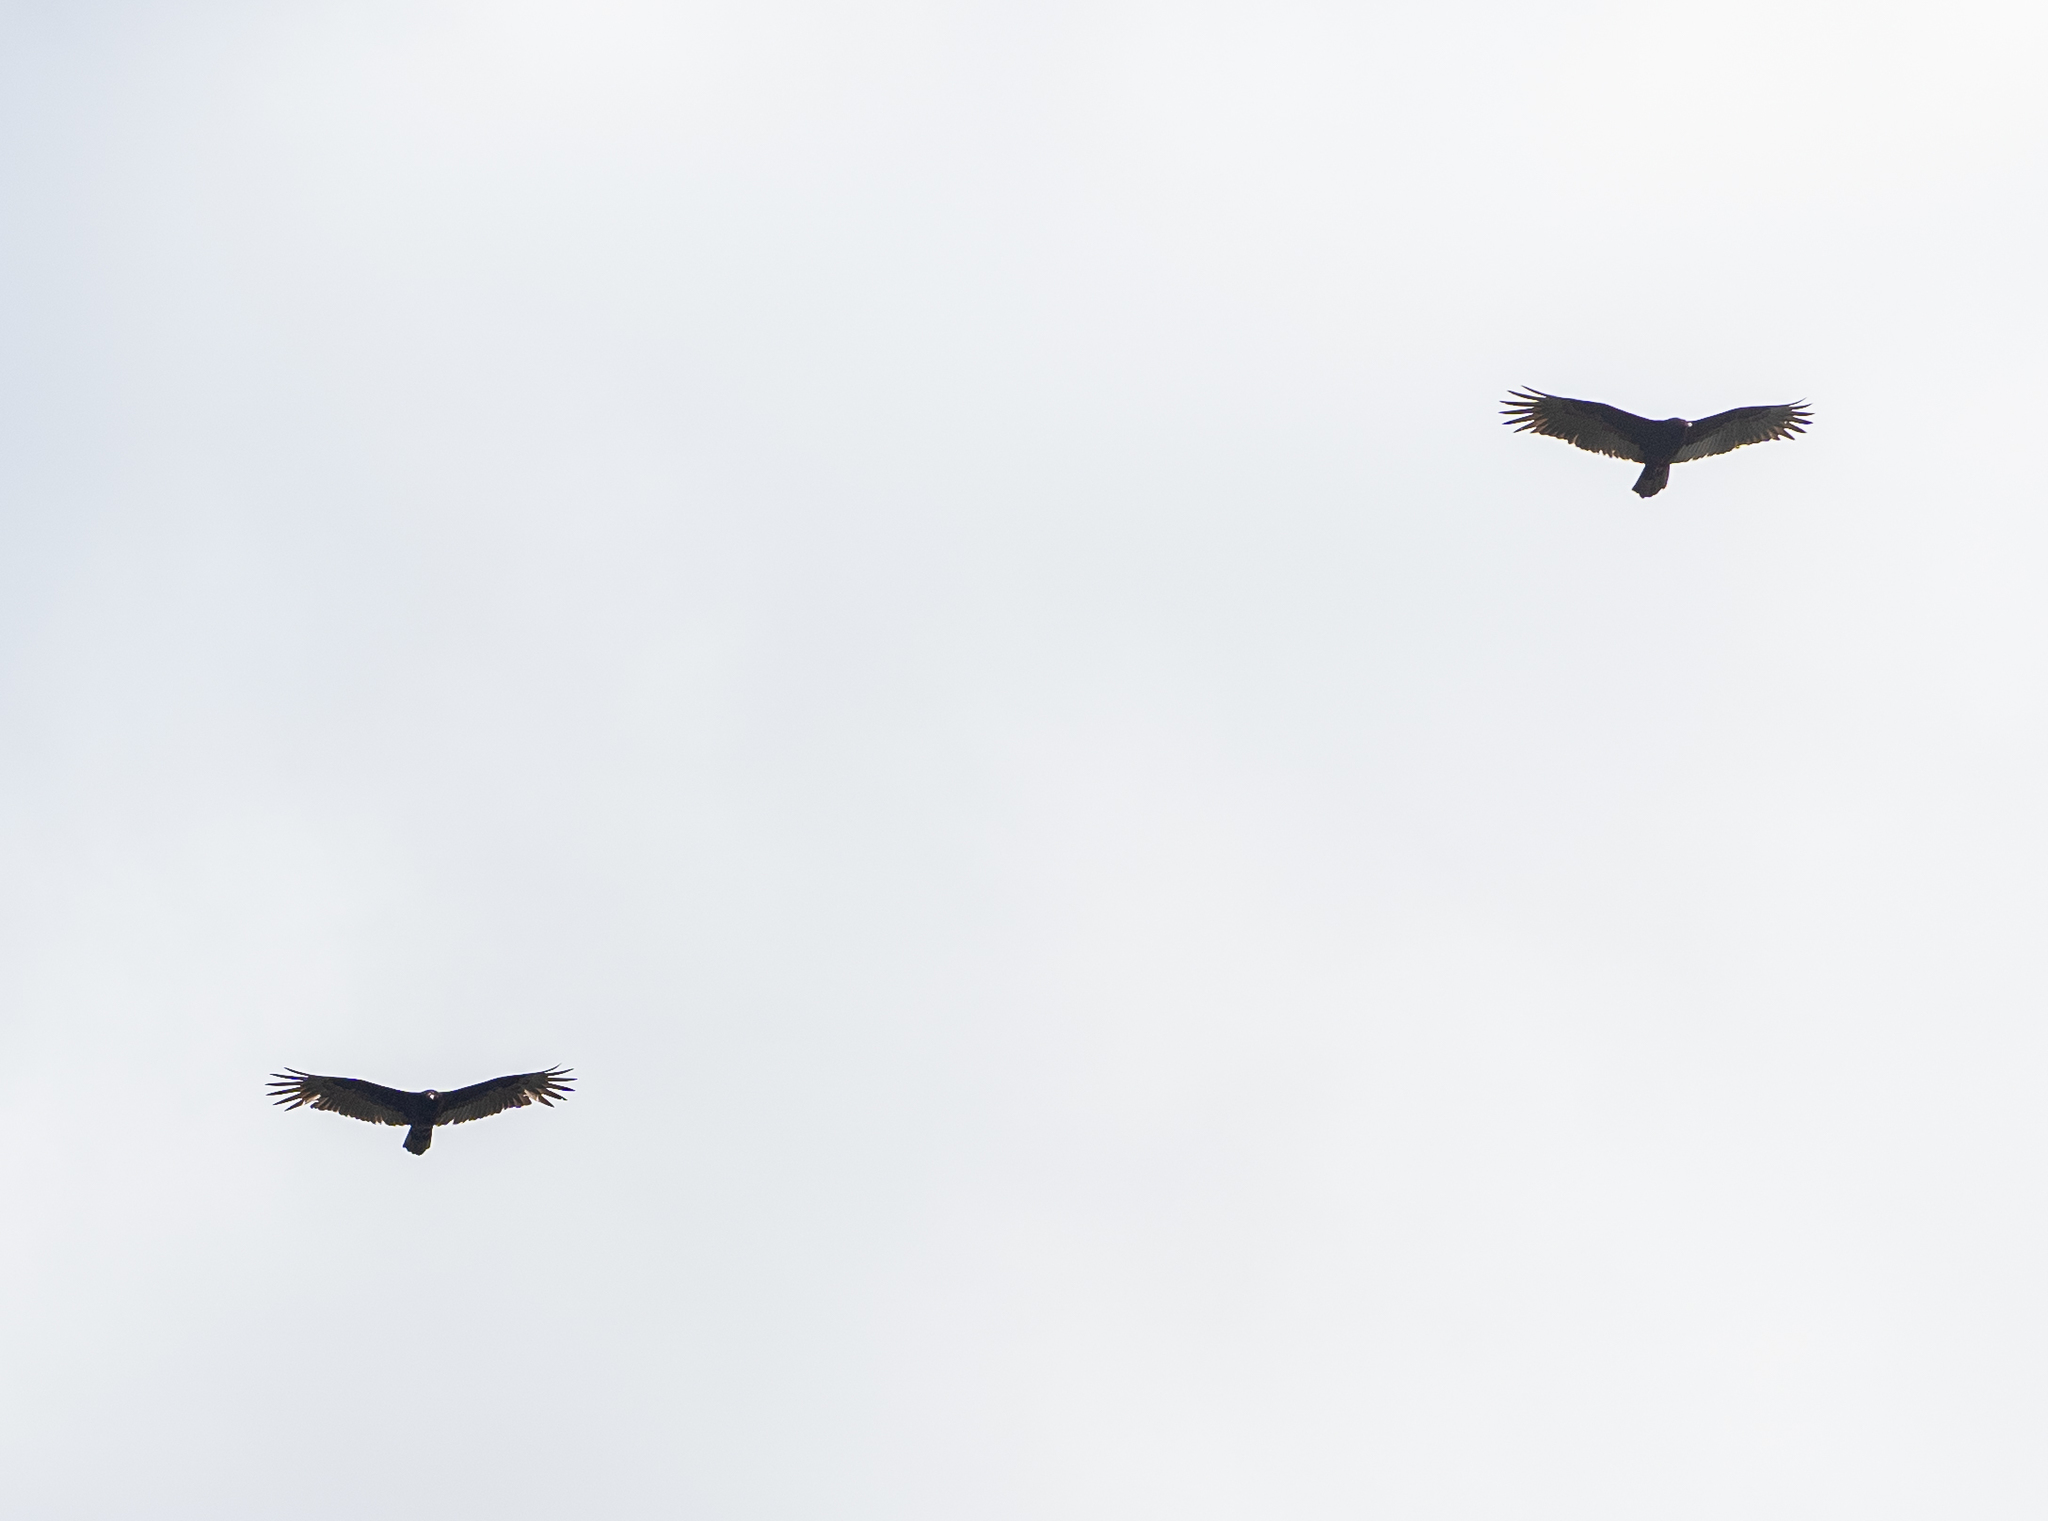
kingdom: Animalia
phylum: Chordata
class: Aves
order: Accipitriformes
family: Cathartidae
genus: Cathartes
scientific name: Cathartes aura
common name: Turkey vulture
